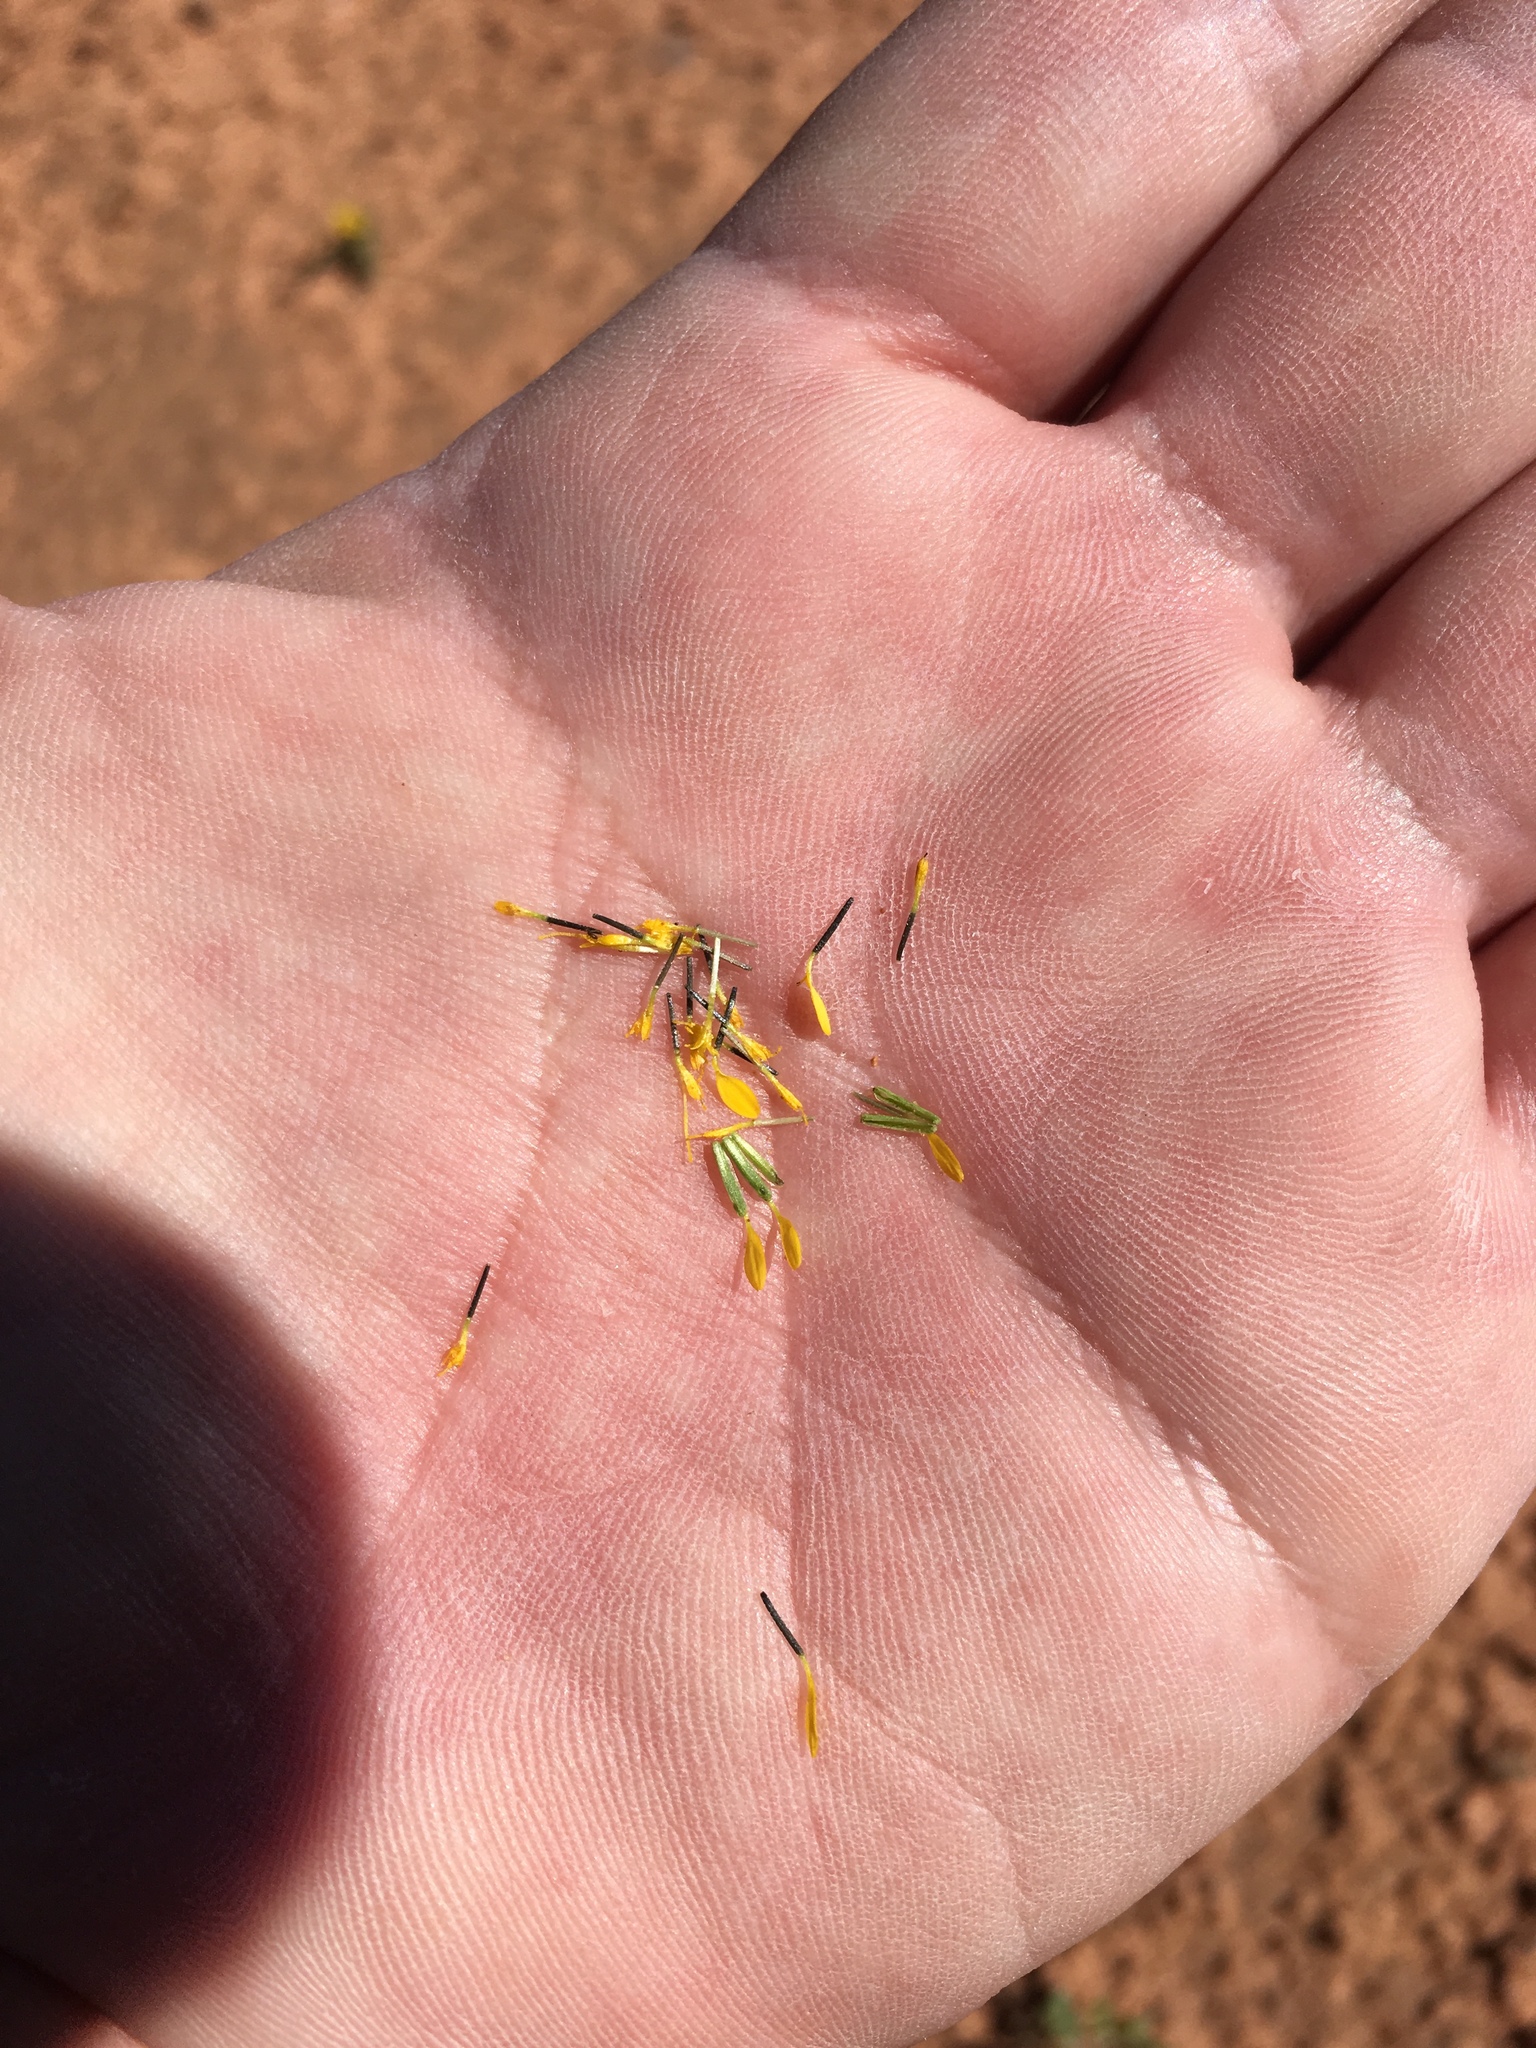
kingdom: Plantae
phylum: Tracheophyta
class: Magnoliopsida
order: Asterales
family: Asteraceae
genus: Pectis
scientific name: Pectis angustifolia
